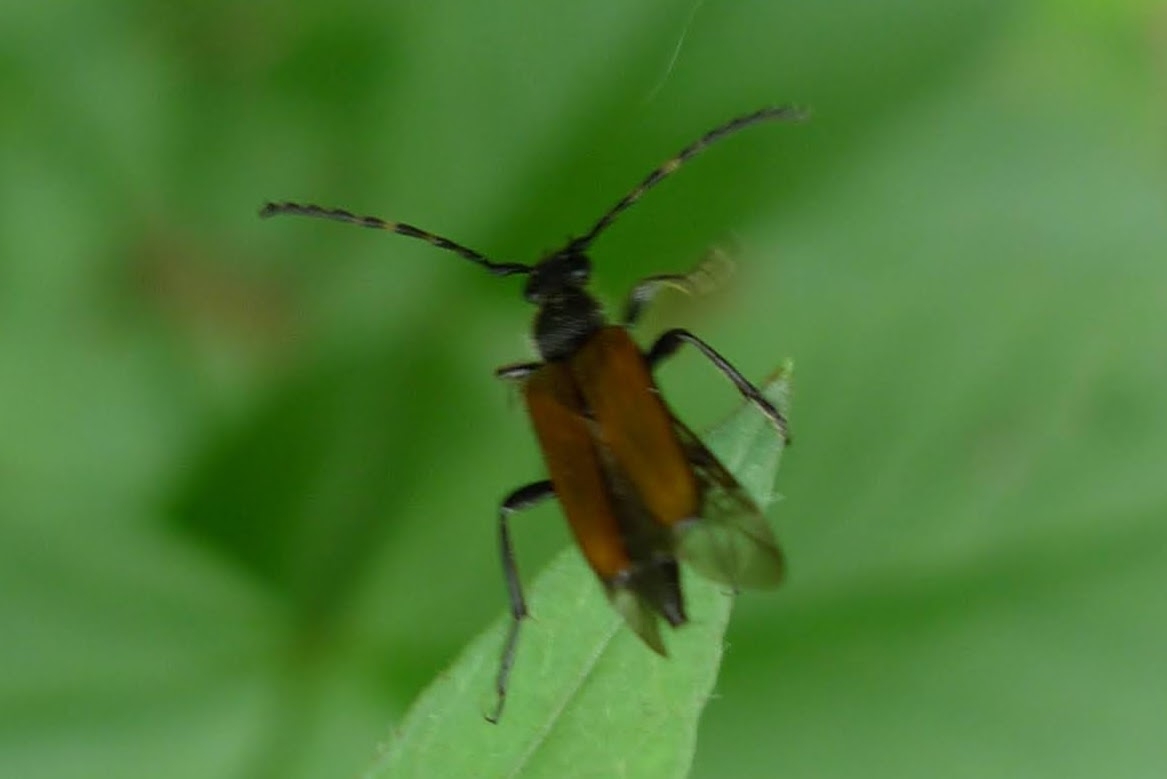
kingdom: Animalia
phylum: Arthropoda
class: Insecta
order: Coleoptera
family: Cerambycidae
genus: Paracorymbia
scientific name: Paracorymbia maculicornis
